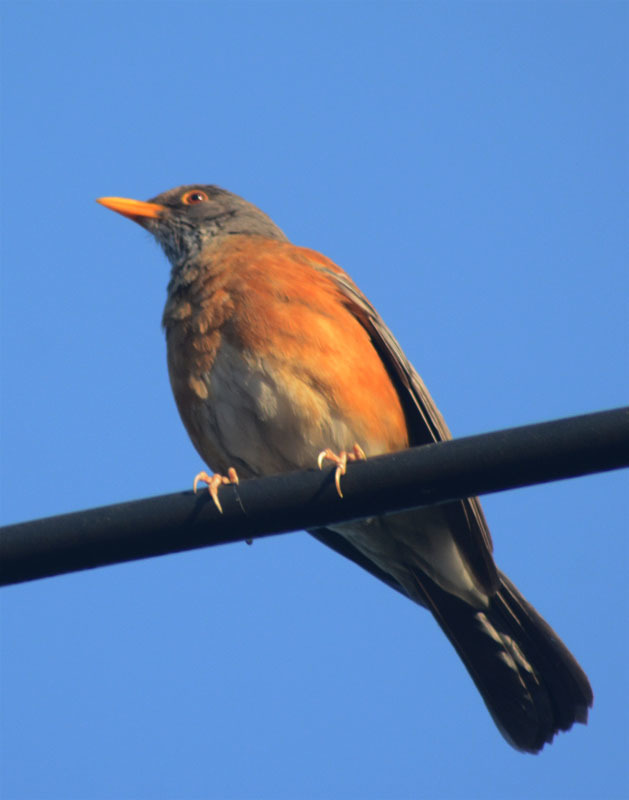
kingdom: Animalia
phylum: Chordata
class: Aves
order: Passeriformes
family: Turdidae
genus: Turdus
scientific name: Turdus rufopalliatus
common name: Rufous-backed robin
